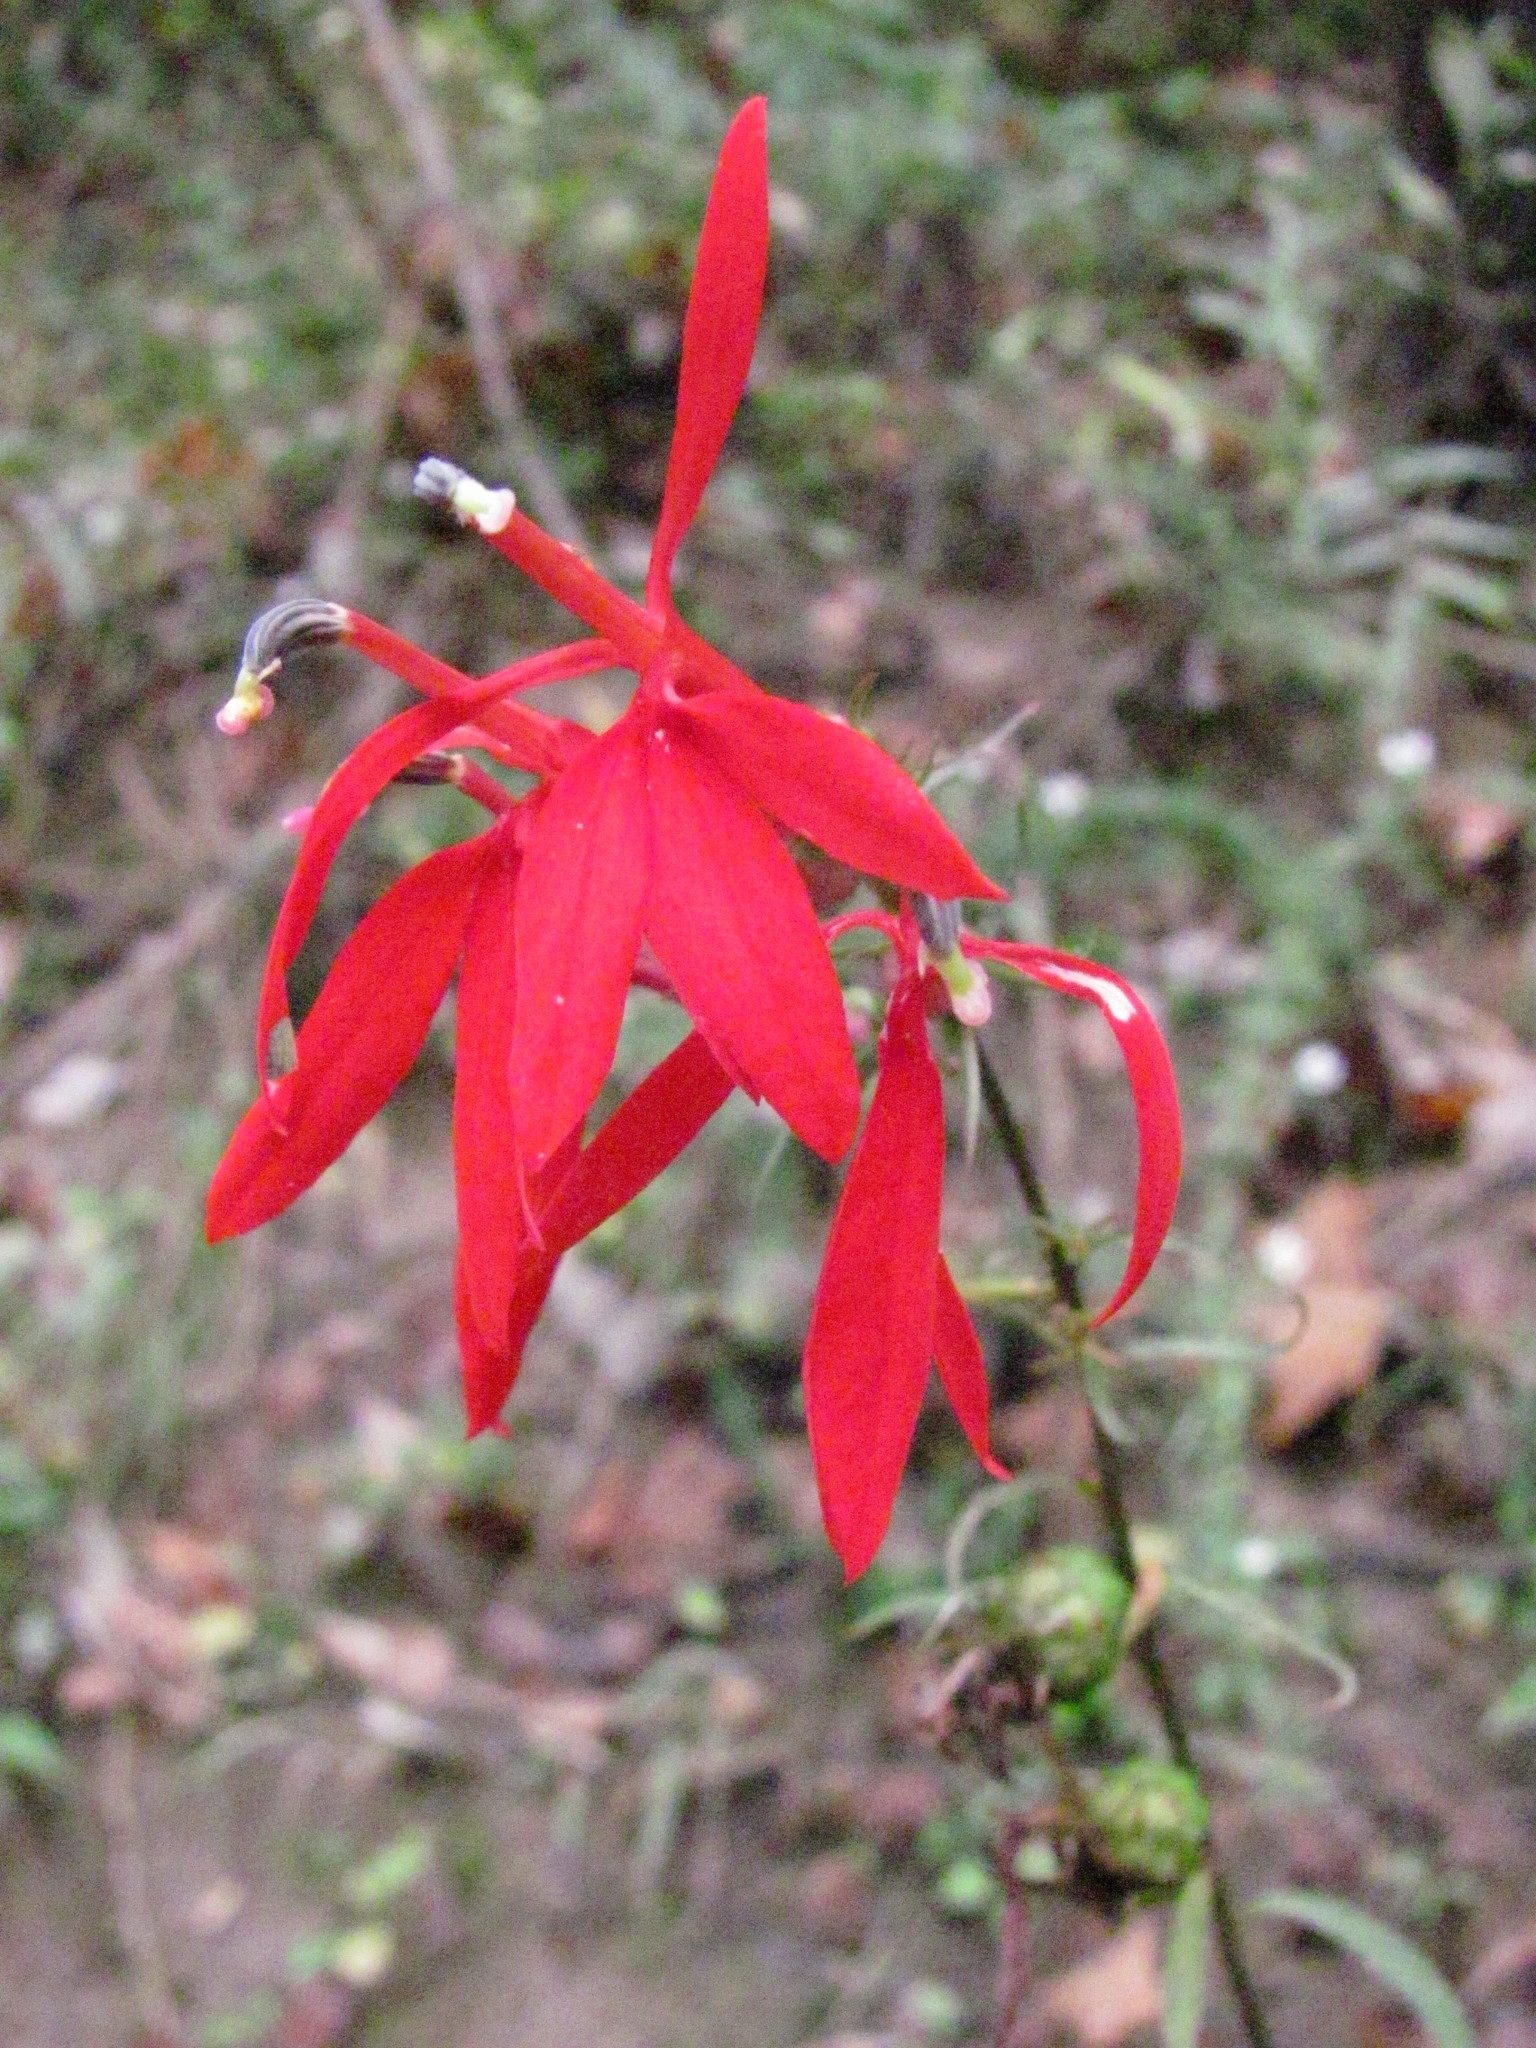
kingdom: Plantae
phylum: Tracheophyta
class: Magnoliopsida
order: Asterales
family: Campanulaceae
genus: Lobelia
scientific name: Lobelia cardinalis
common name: Cardinal flower
